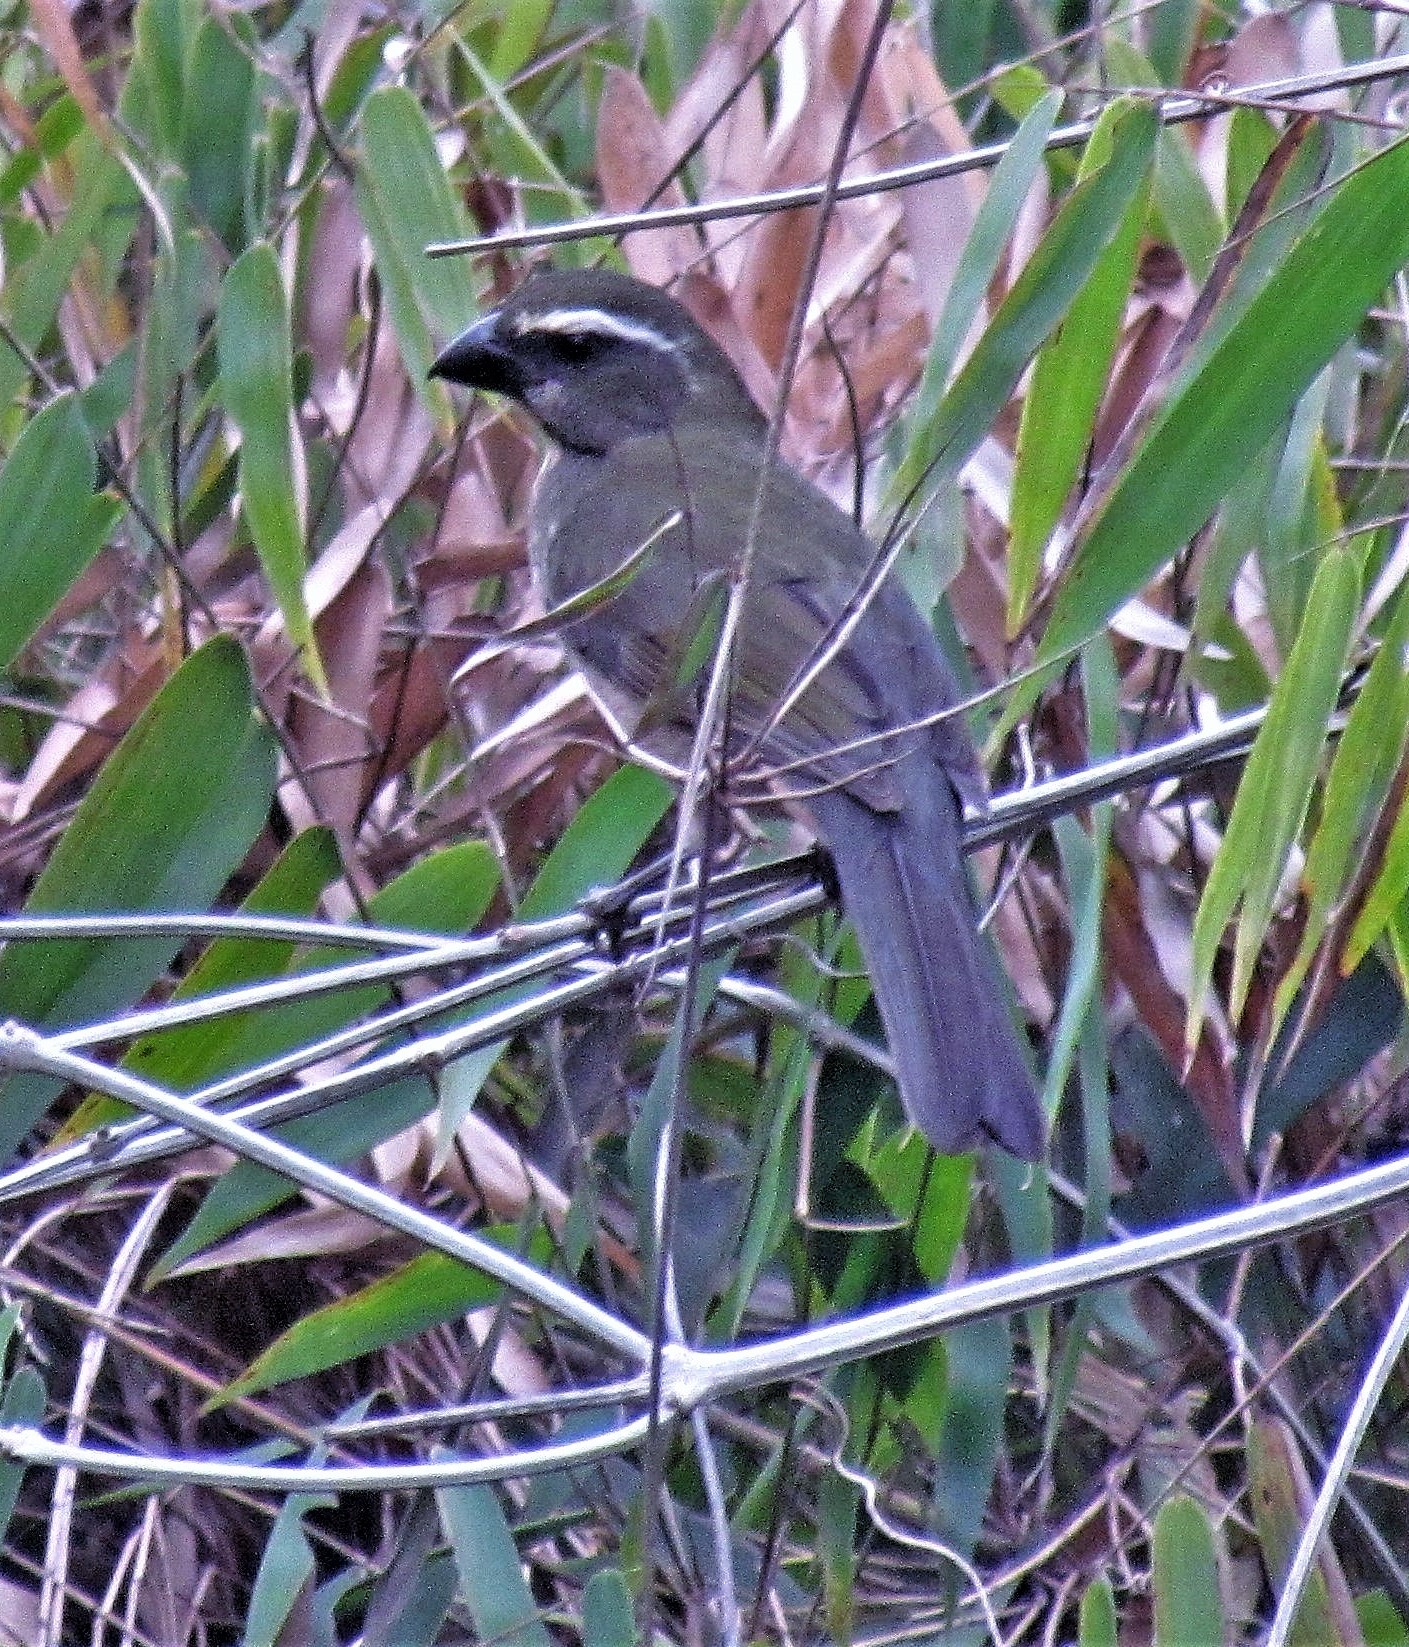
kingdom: Animalia
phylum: Chordata
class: Aves
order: Passeriformes
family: Thraupidae
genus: Saltator
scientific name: Saltator maxillosus
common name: Thick-billed saltator
